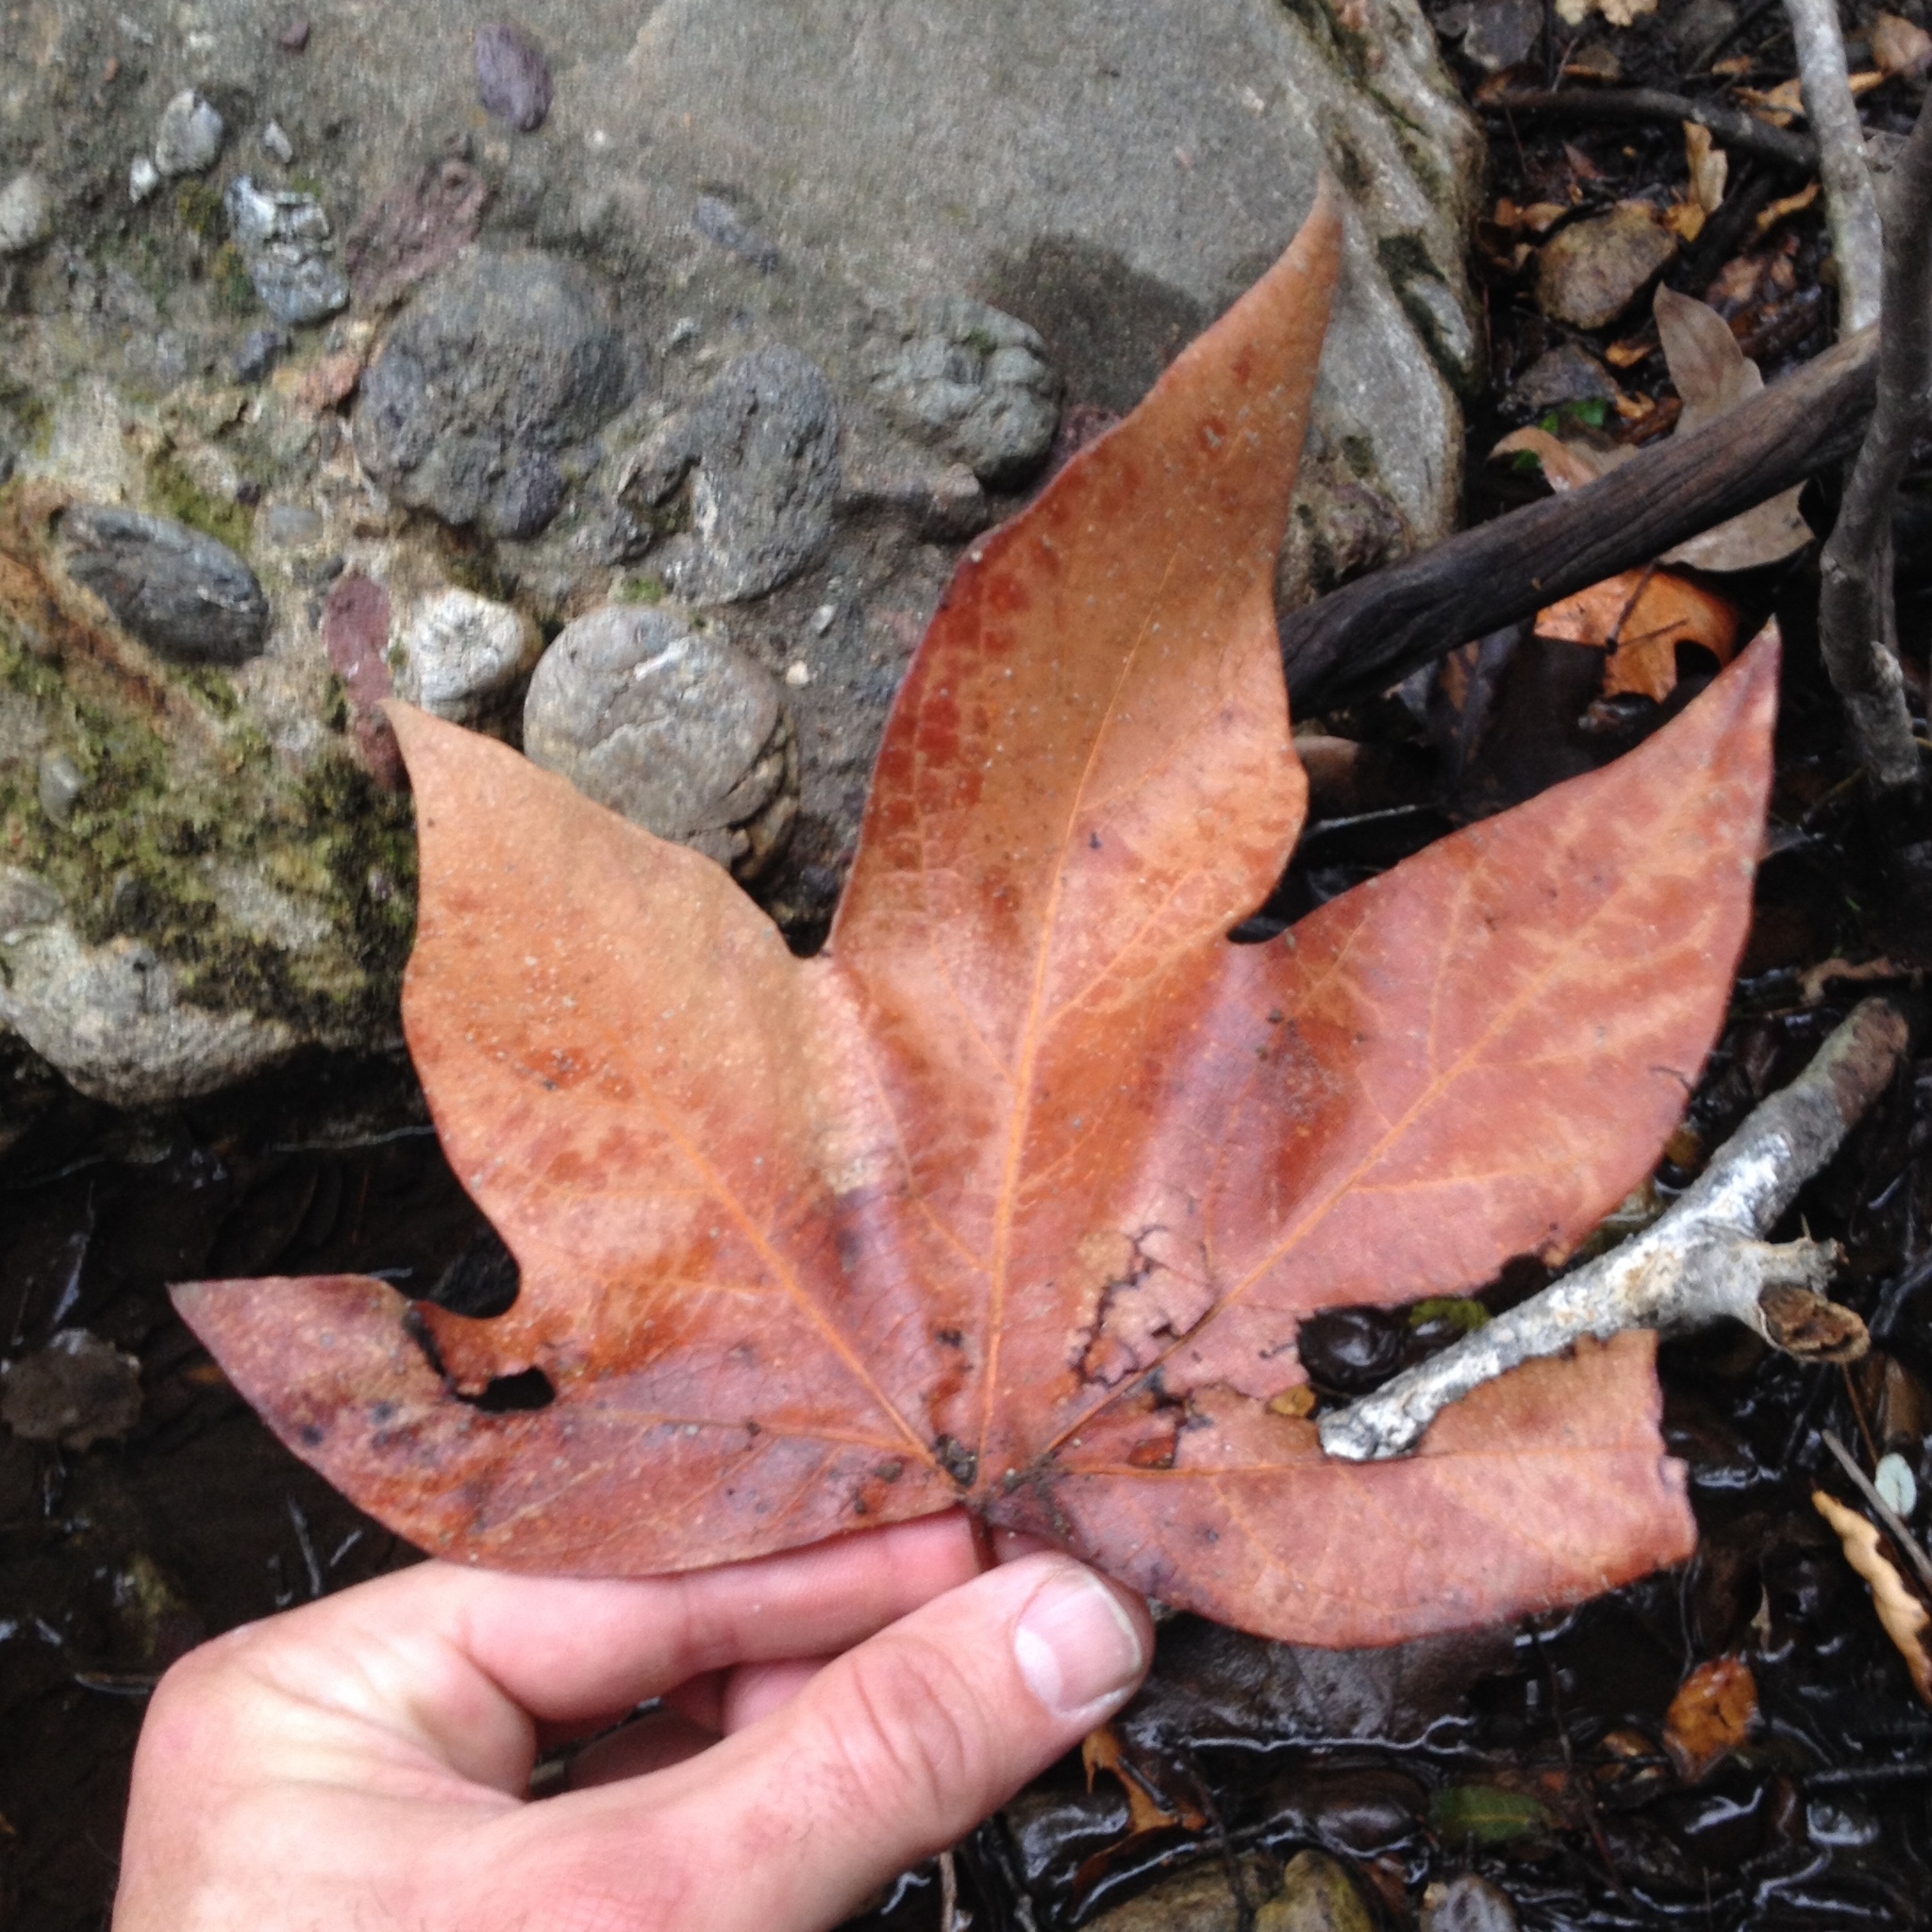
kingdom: Plantae
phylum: Tracheophyta
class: Magnoliopsida
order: Proteales
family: Platanaceae
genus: Platanus
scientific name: Platanus racemosa
